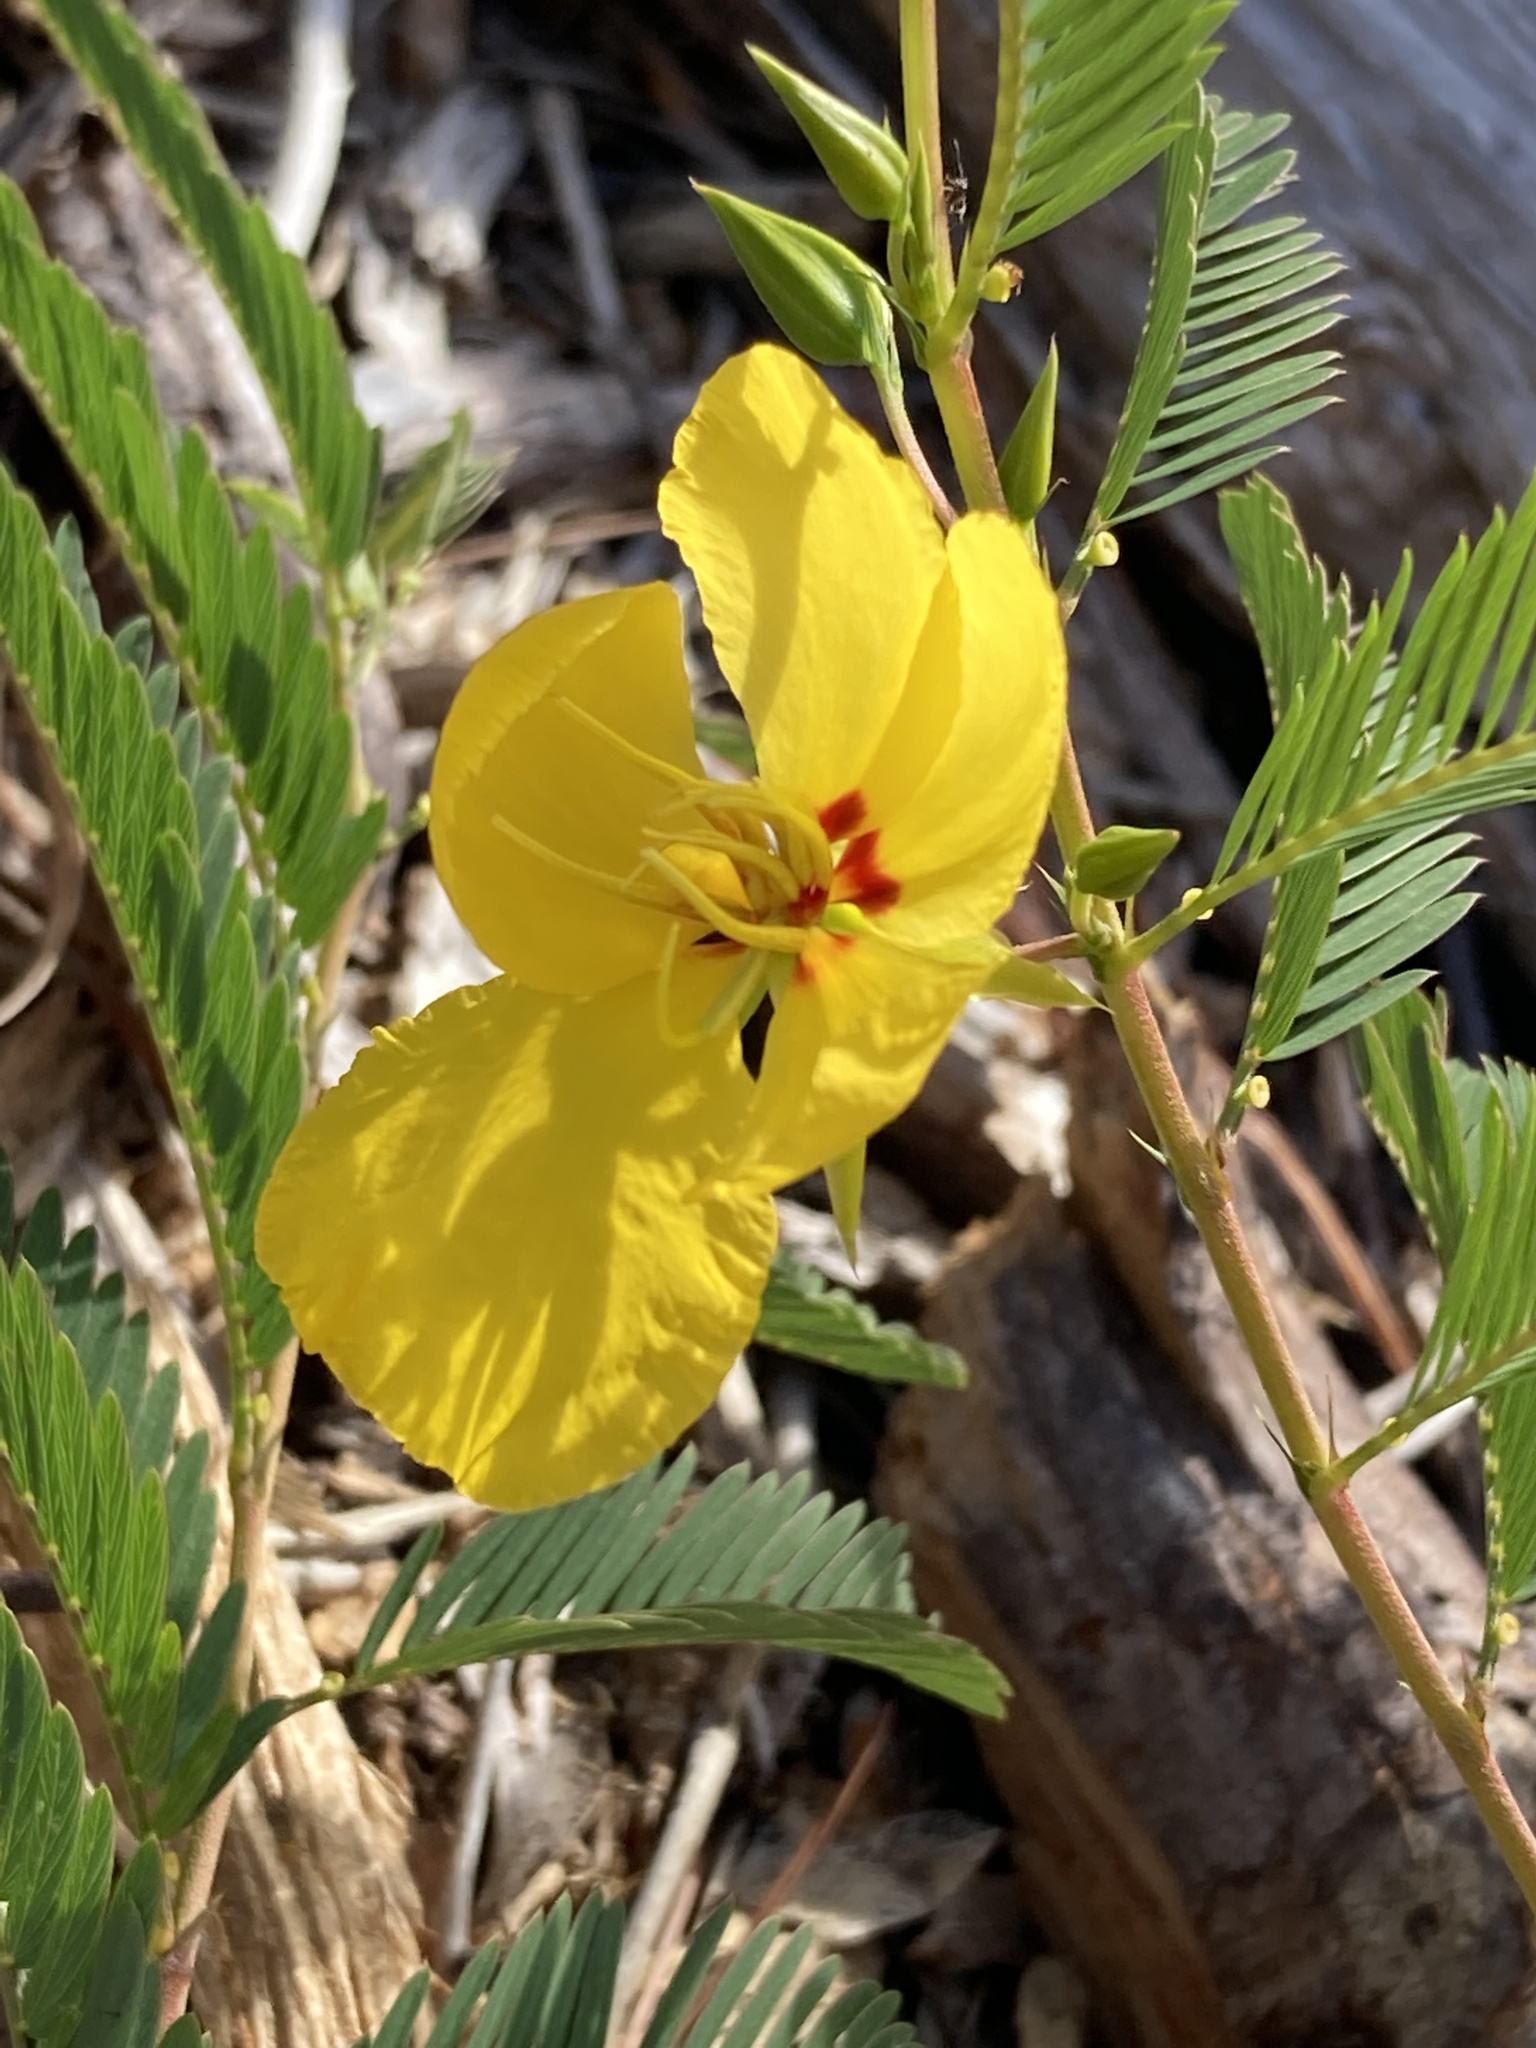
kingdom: Plantae
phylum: Tracheophyta
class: Magnoliopsida
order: Fabales
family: Fabaceae
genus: Chamaecrista
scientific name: Chamaecrista fasciculata
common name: Golden cassia
